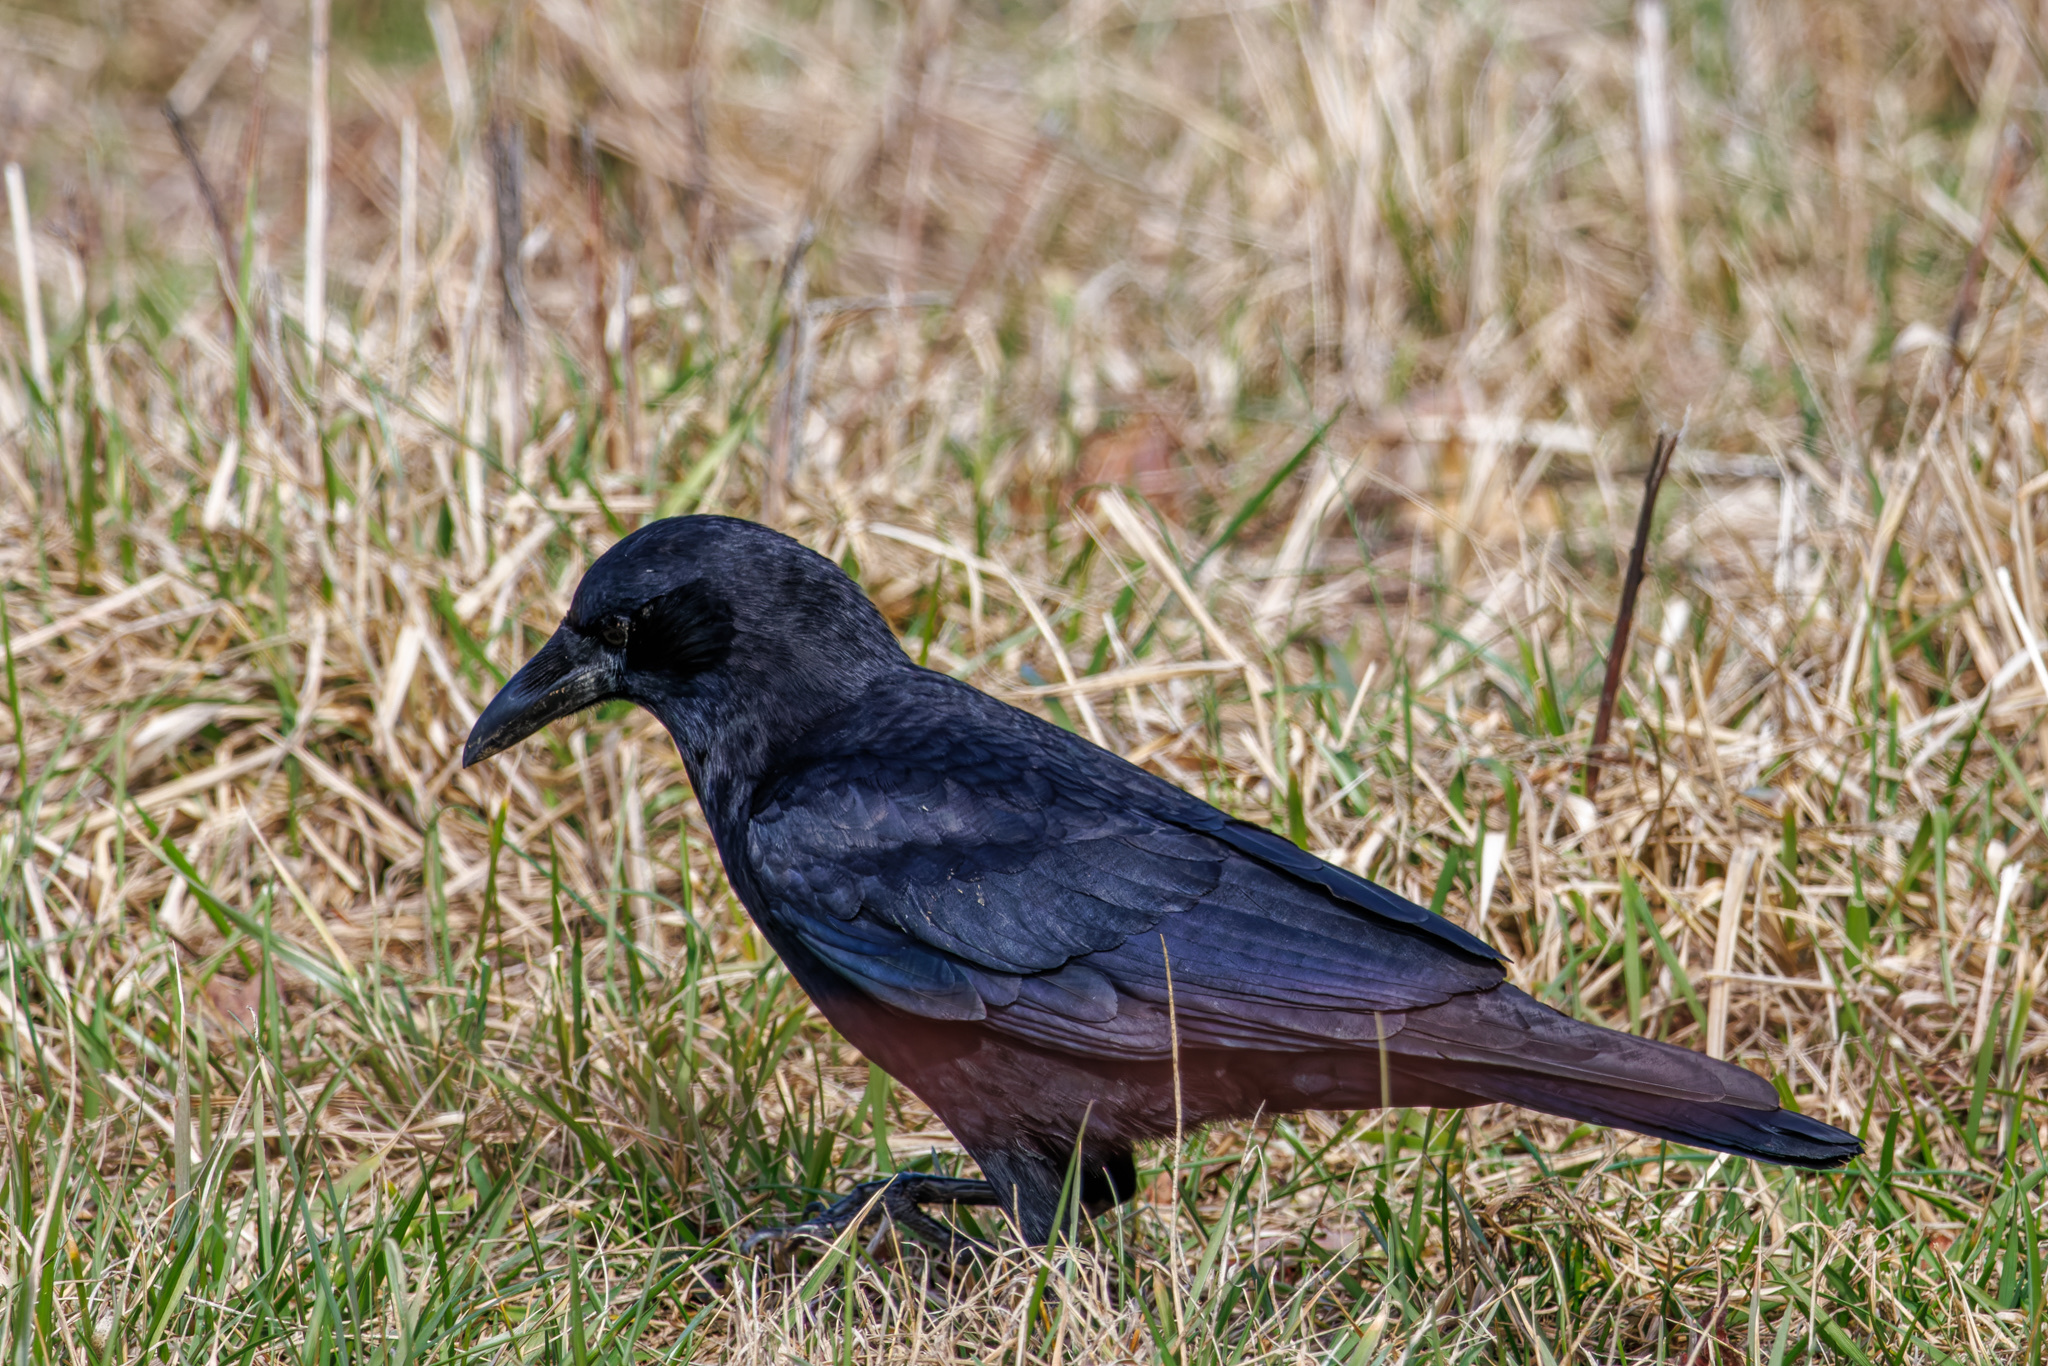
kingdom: Animalia
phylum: Chordata
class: Aves
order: Passeriformes
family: Corvidae
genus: Corvus
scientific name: Corvus brachyrhynchos
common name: American crow
